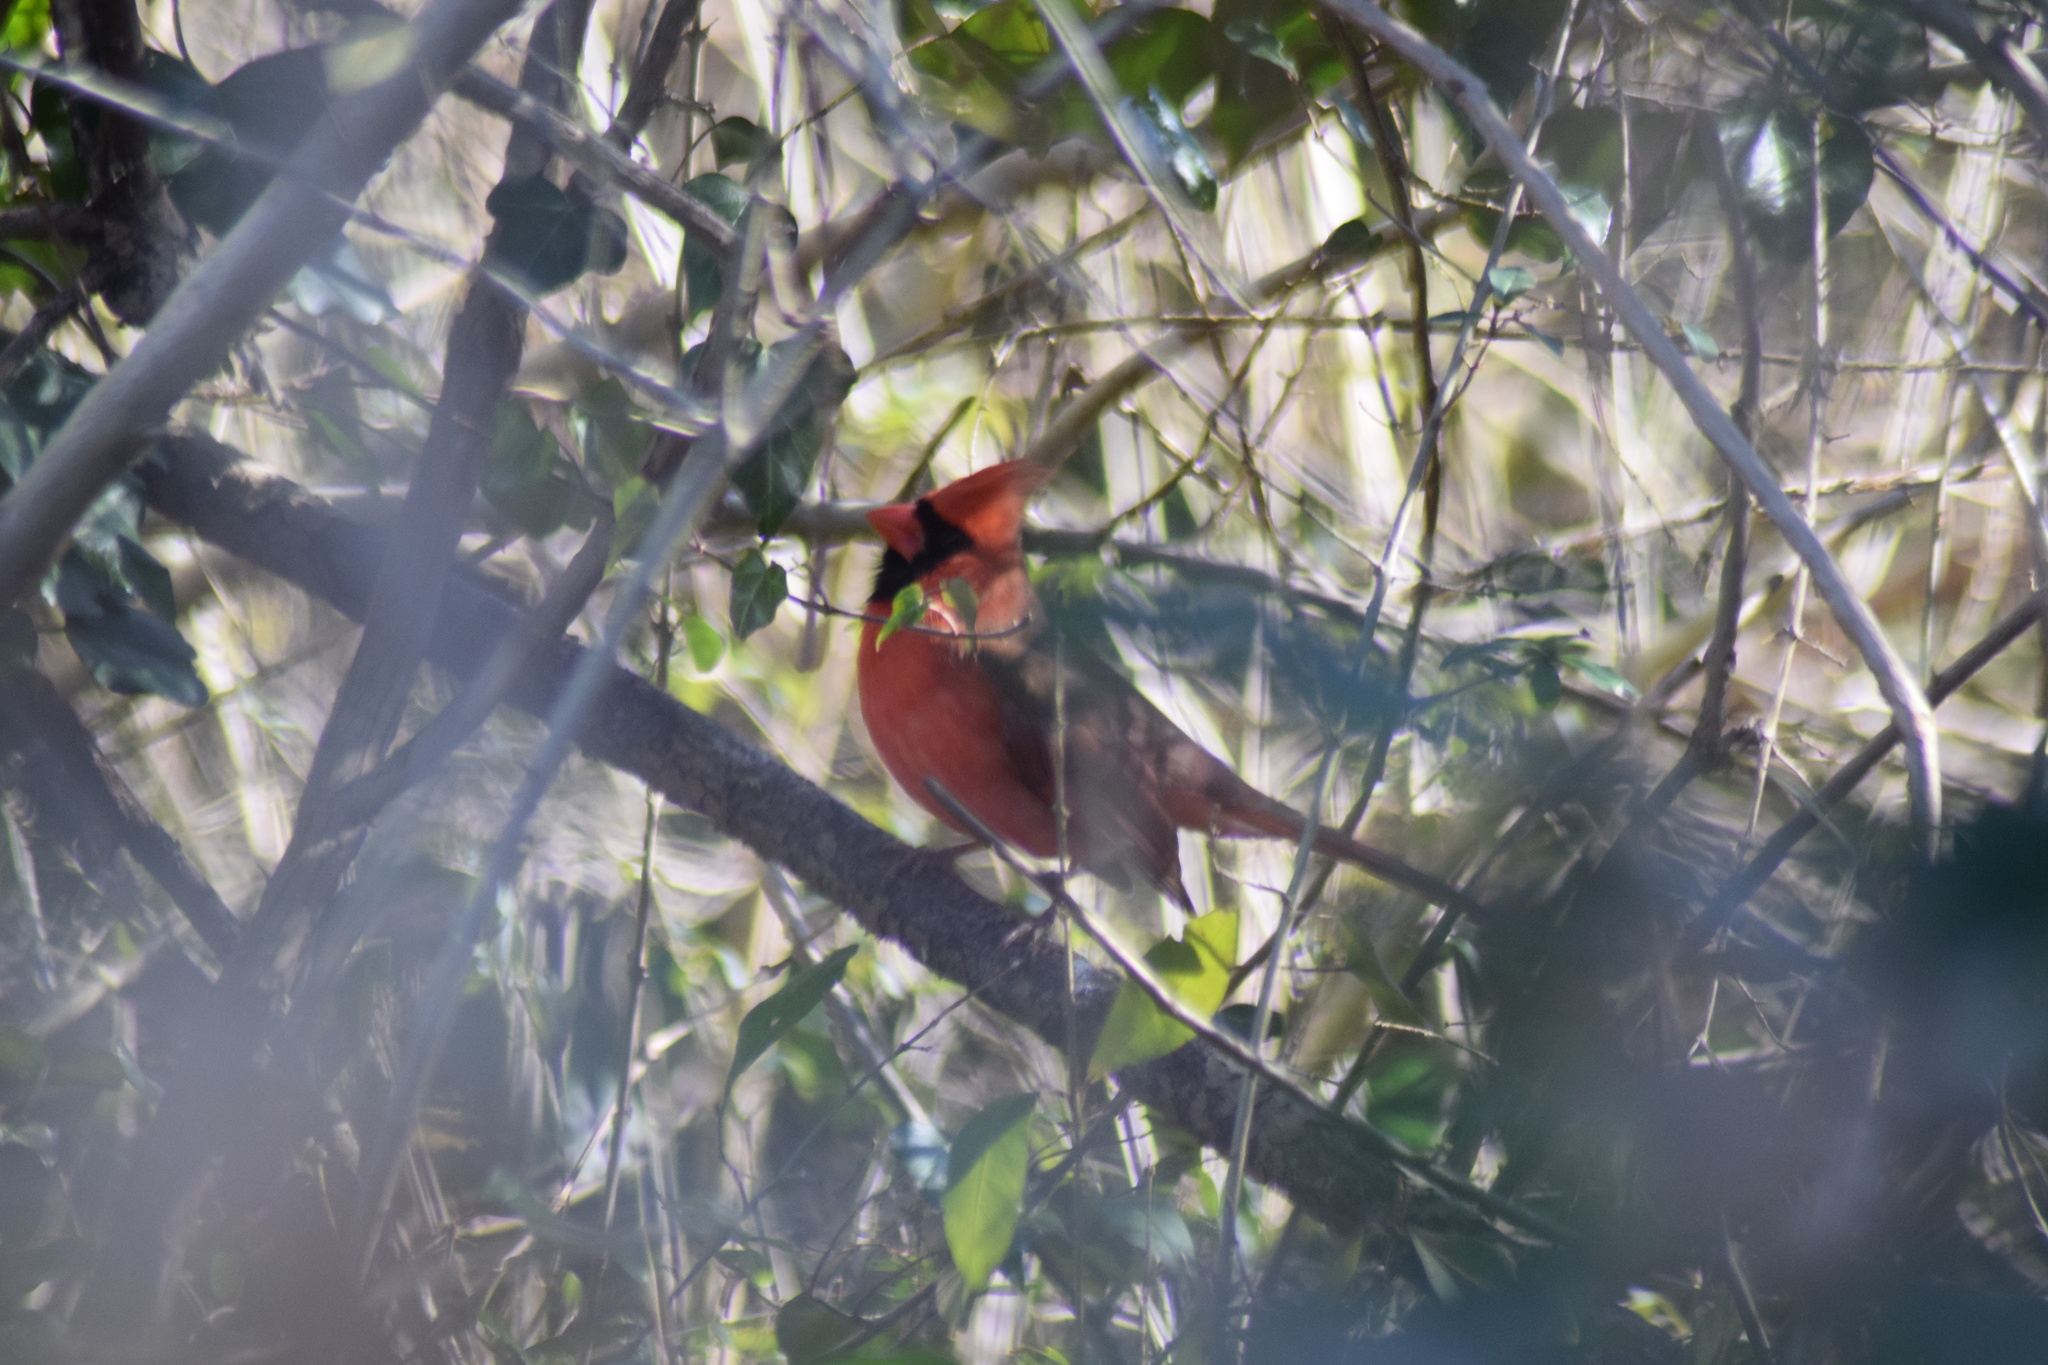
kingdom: Animalia
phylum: Chordata
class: Aves
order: Passeriformes
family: Cardinalidae
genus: Cardinalis
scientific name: Cardinalis cardinalis
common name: Northern cardinal
